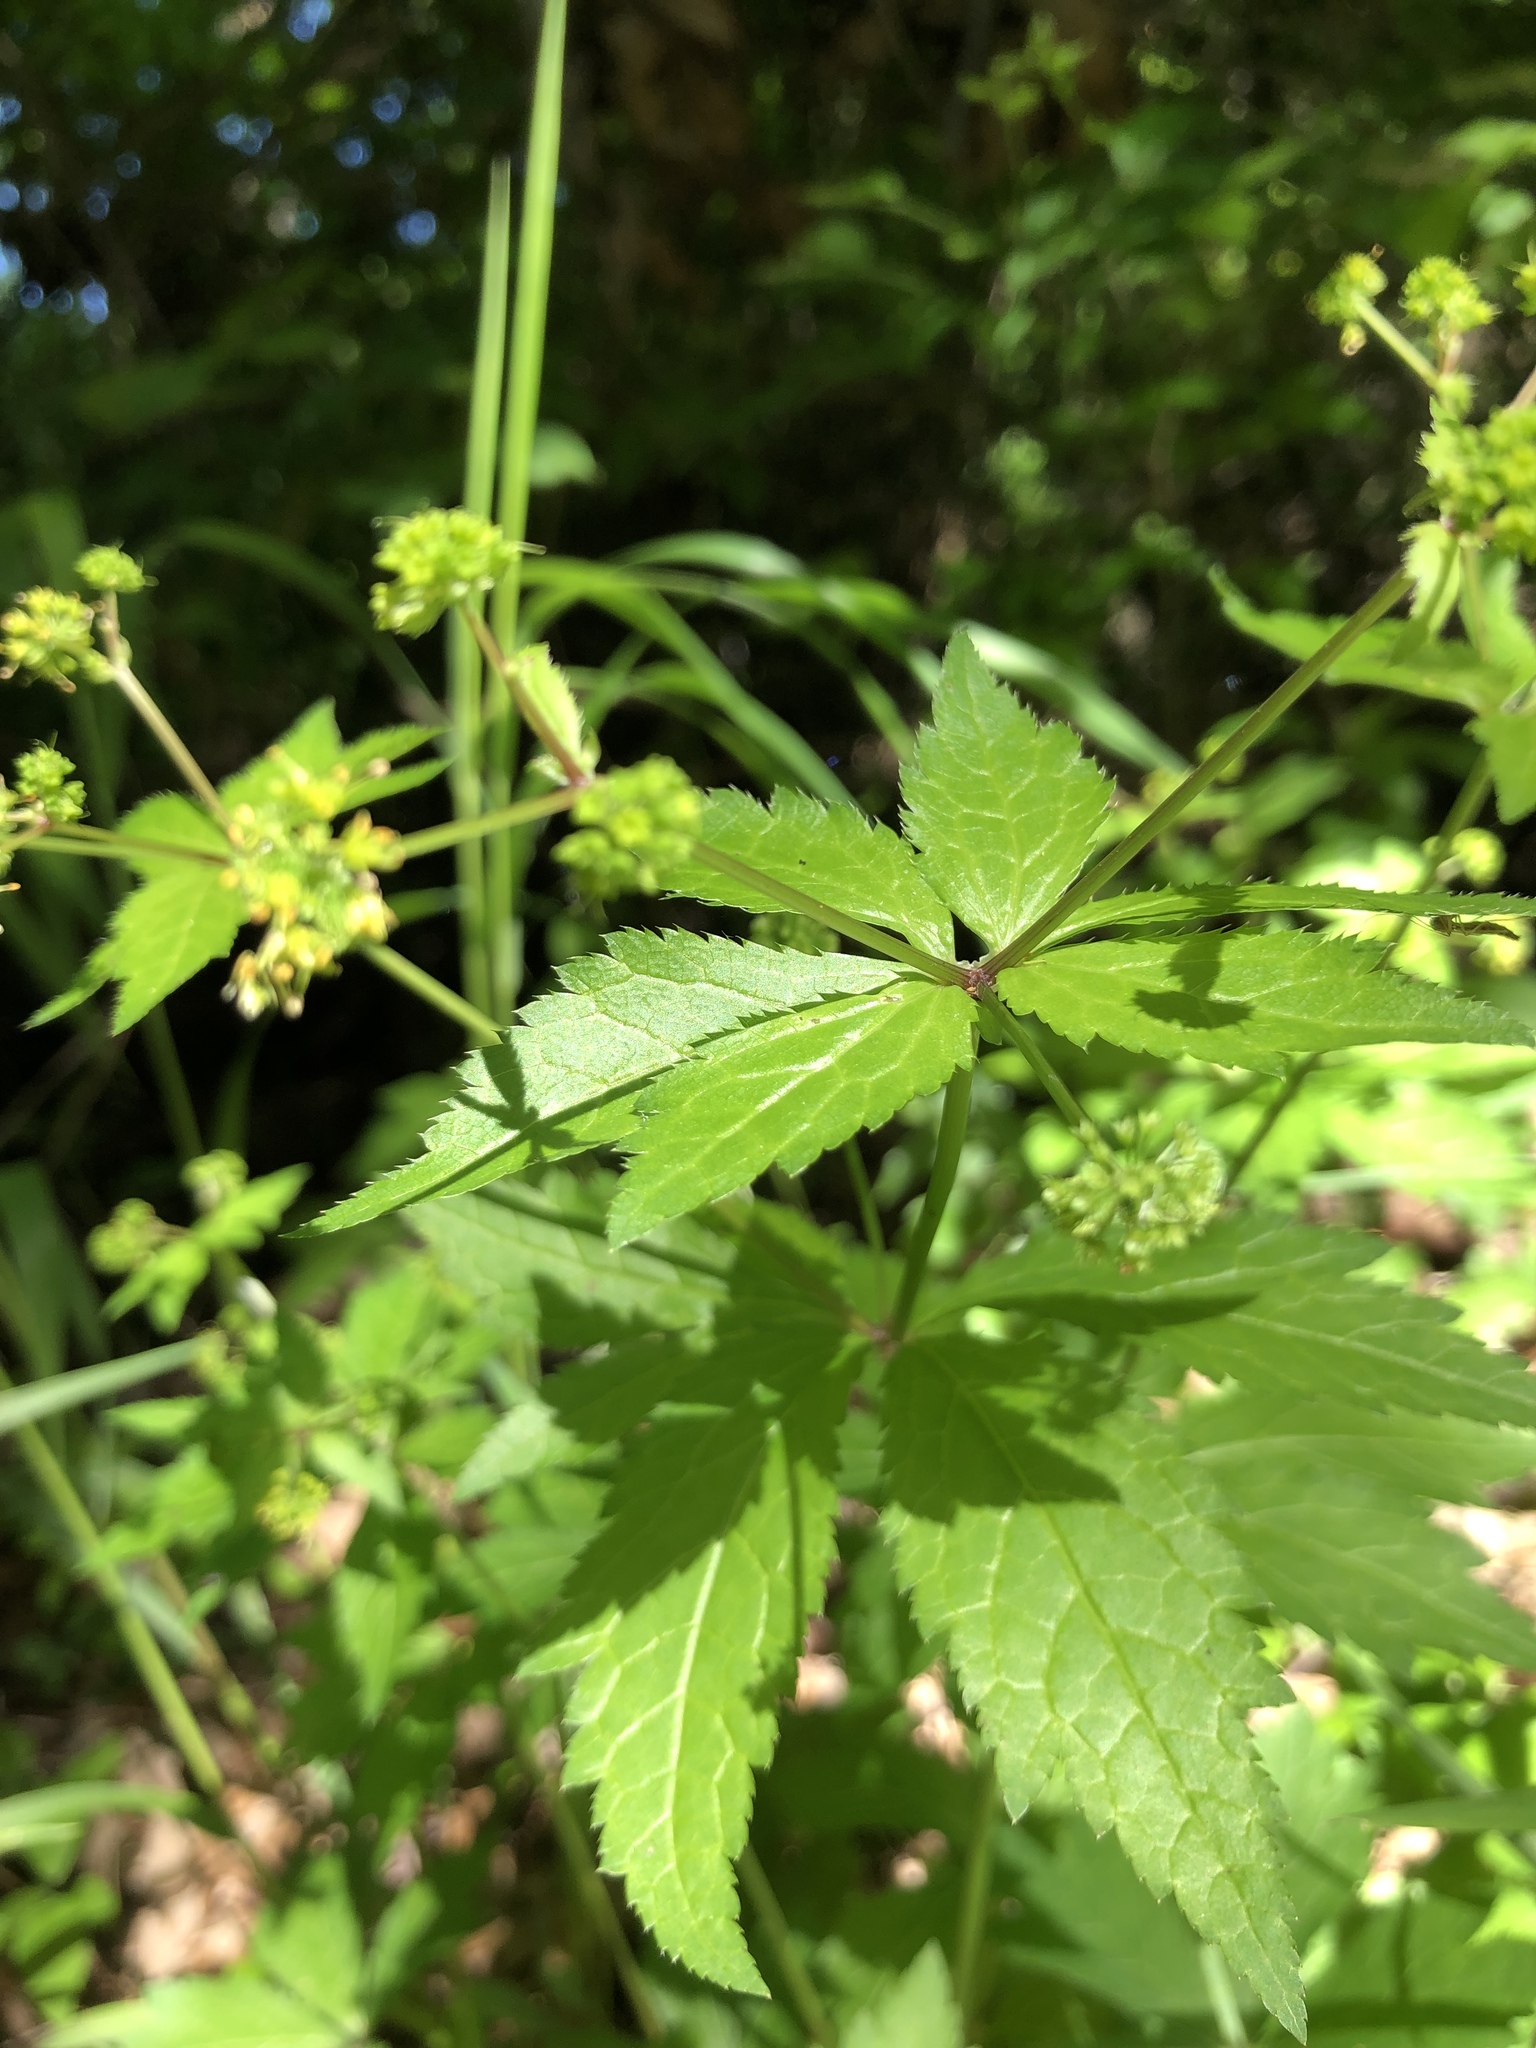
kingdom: Plantae
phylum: Tracheophyta
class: Magnoliopsida
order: Apiales
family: Apiaceae
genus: Sanicula
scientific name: Sanicula odorata
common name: Cluster sanicle
